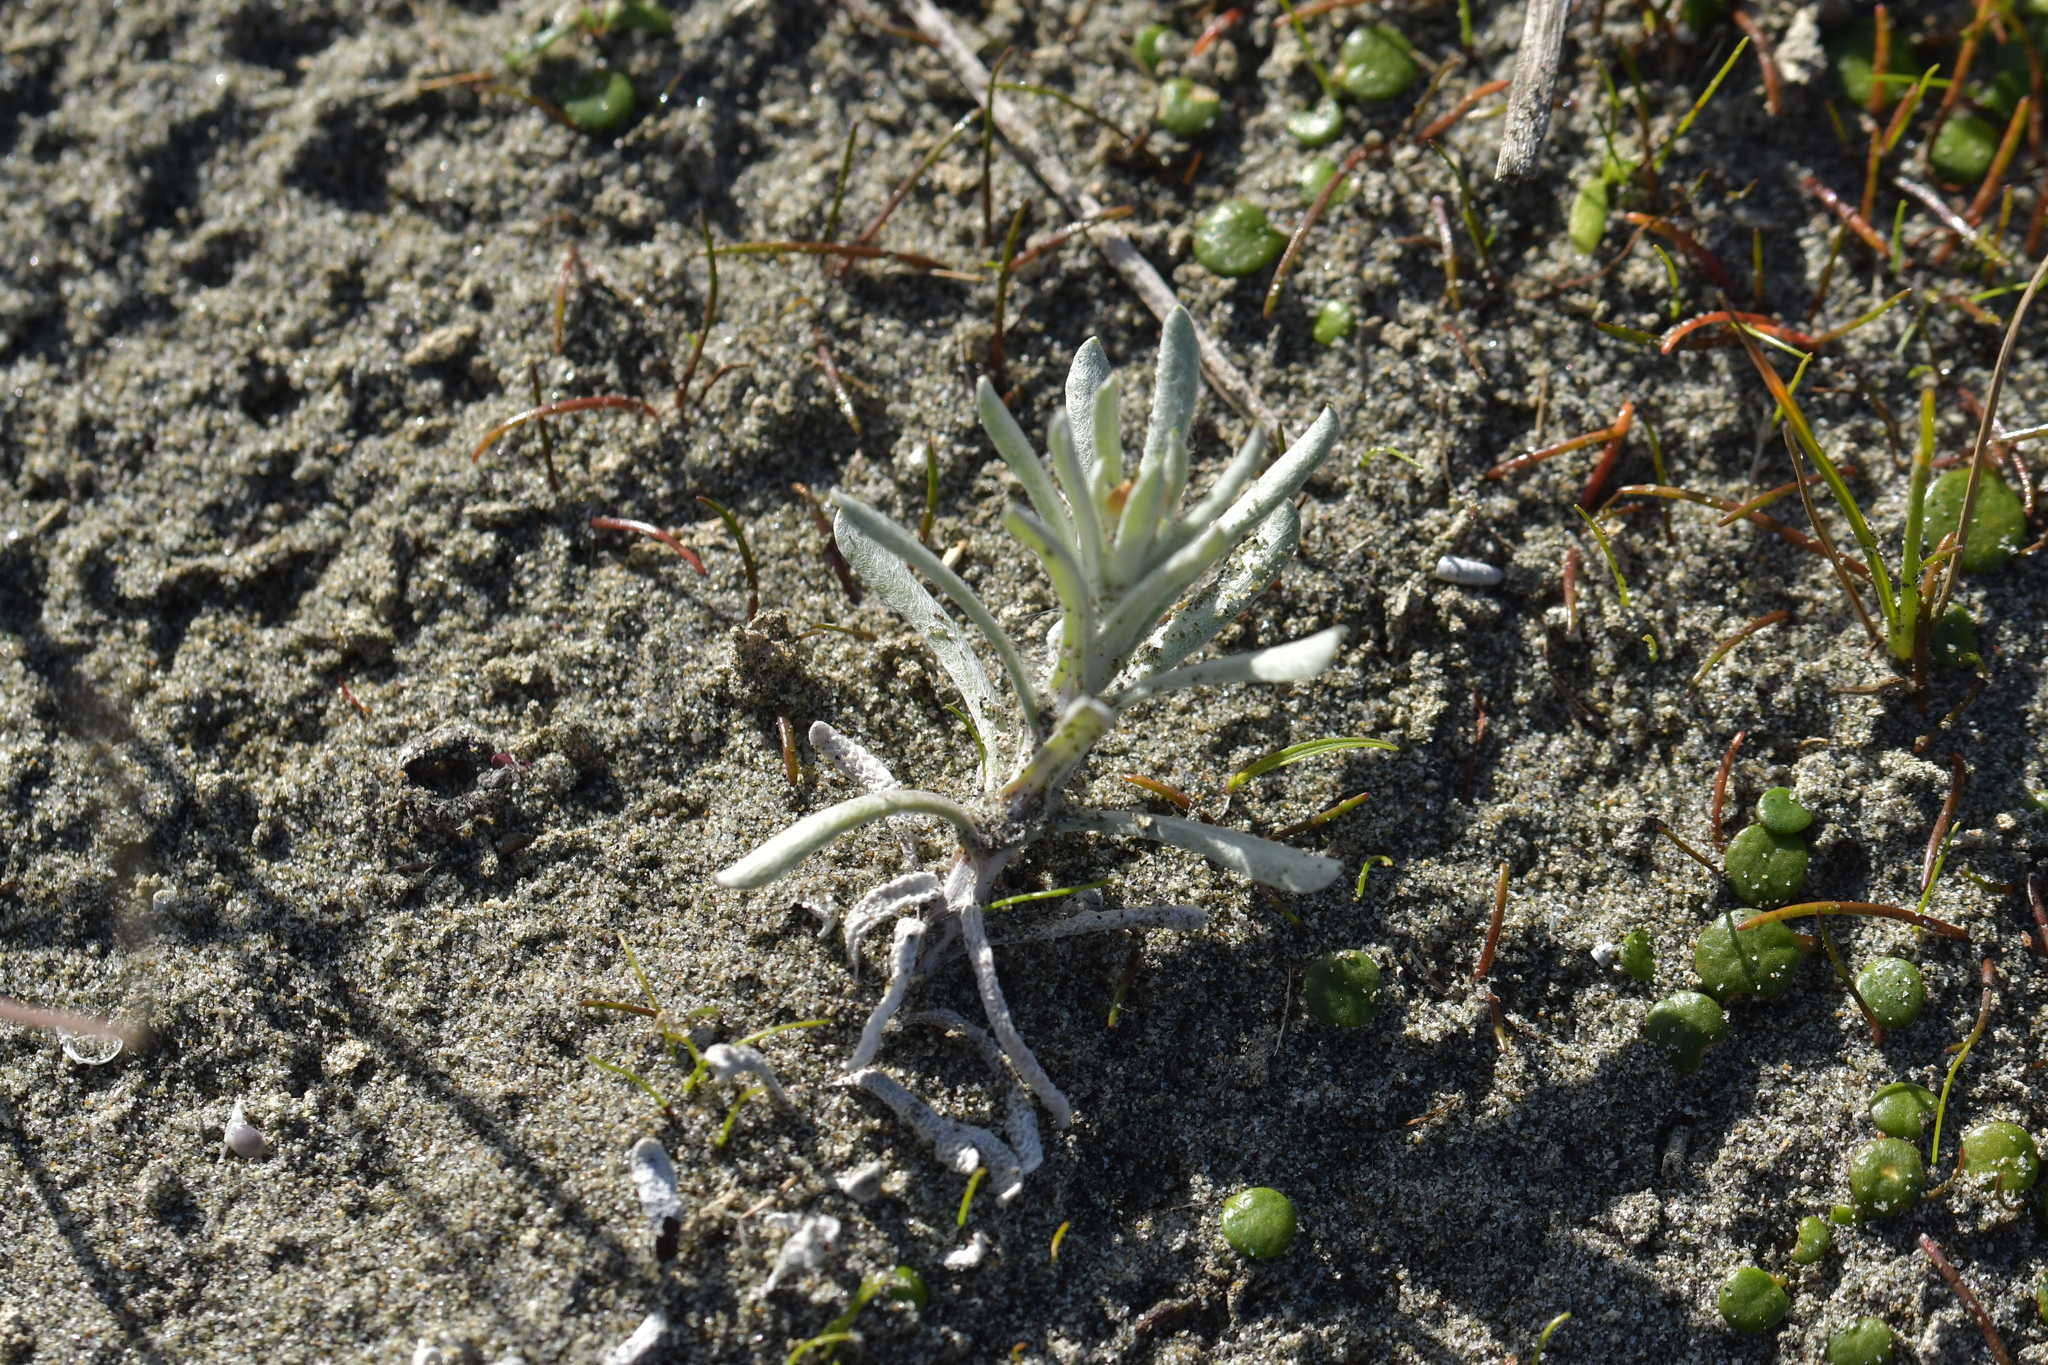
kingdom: Plantae
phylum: Tracheophyta
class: Magnoliopsida
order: Asterales
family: Asteraceae
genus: Helichrysum
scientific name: Helichrysum luteoalbum
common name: Daisy
